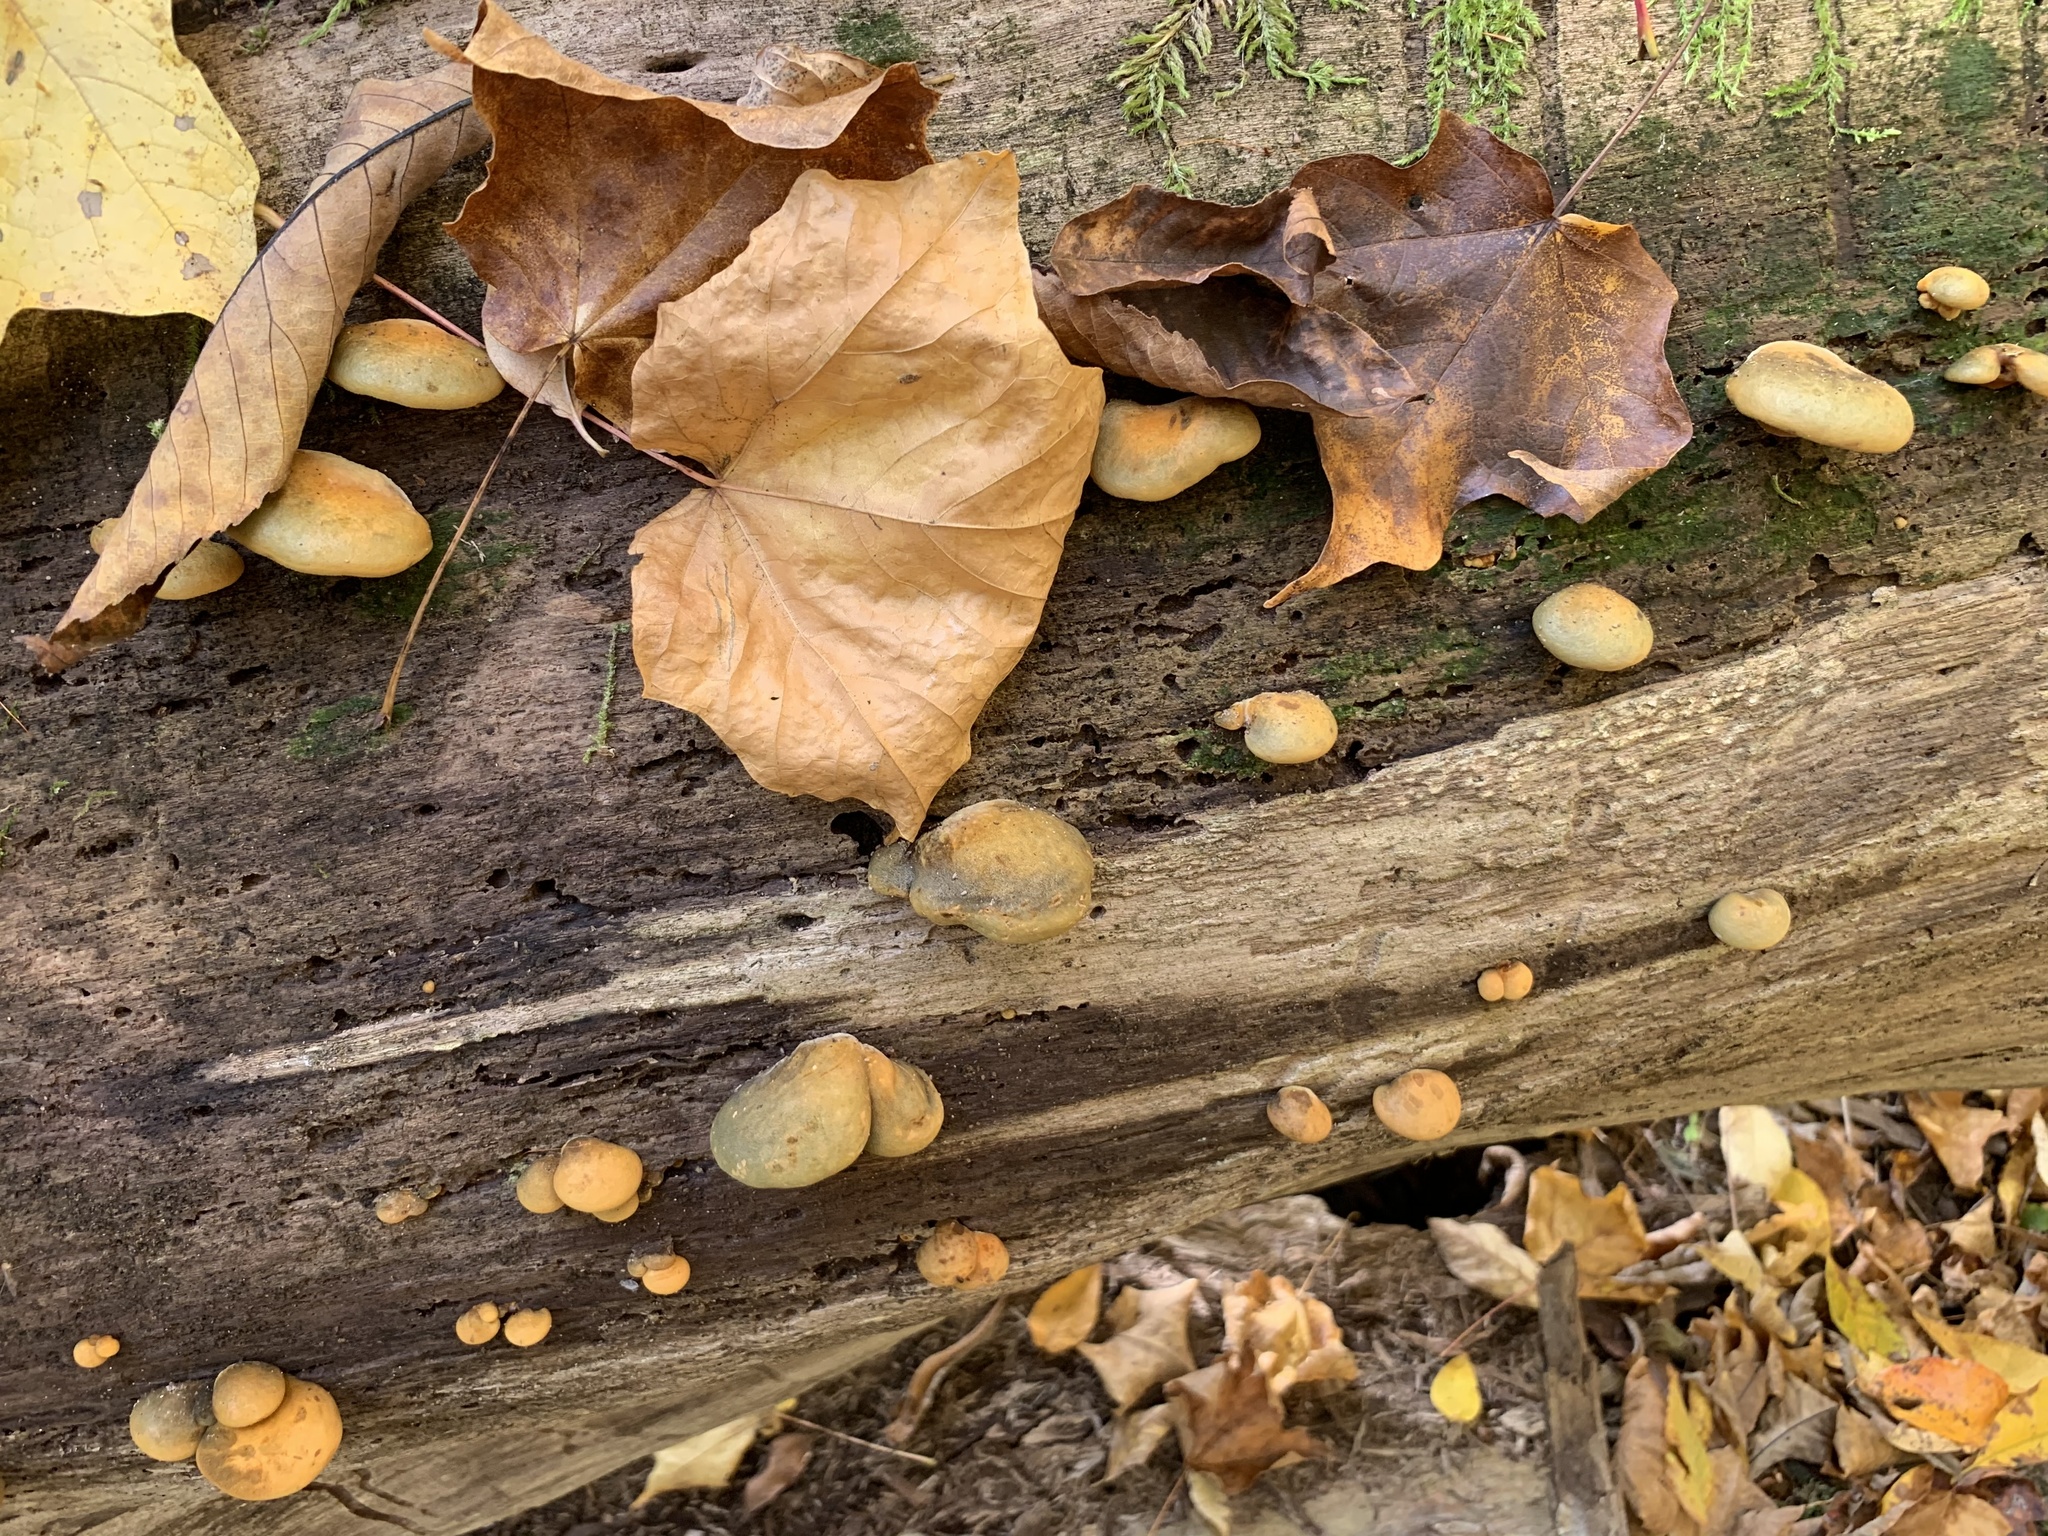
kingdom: Fungi
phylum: Basidiomycota
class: Agaricomycetes
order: Agaricales
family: Sarcomyxaceae
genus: Sarcomyxa
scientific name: Sarcomyxa serotina
